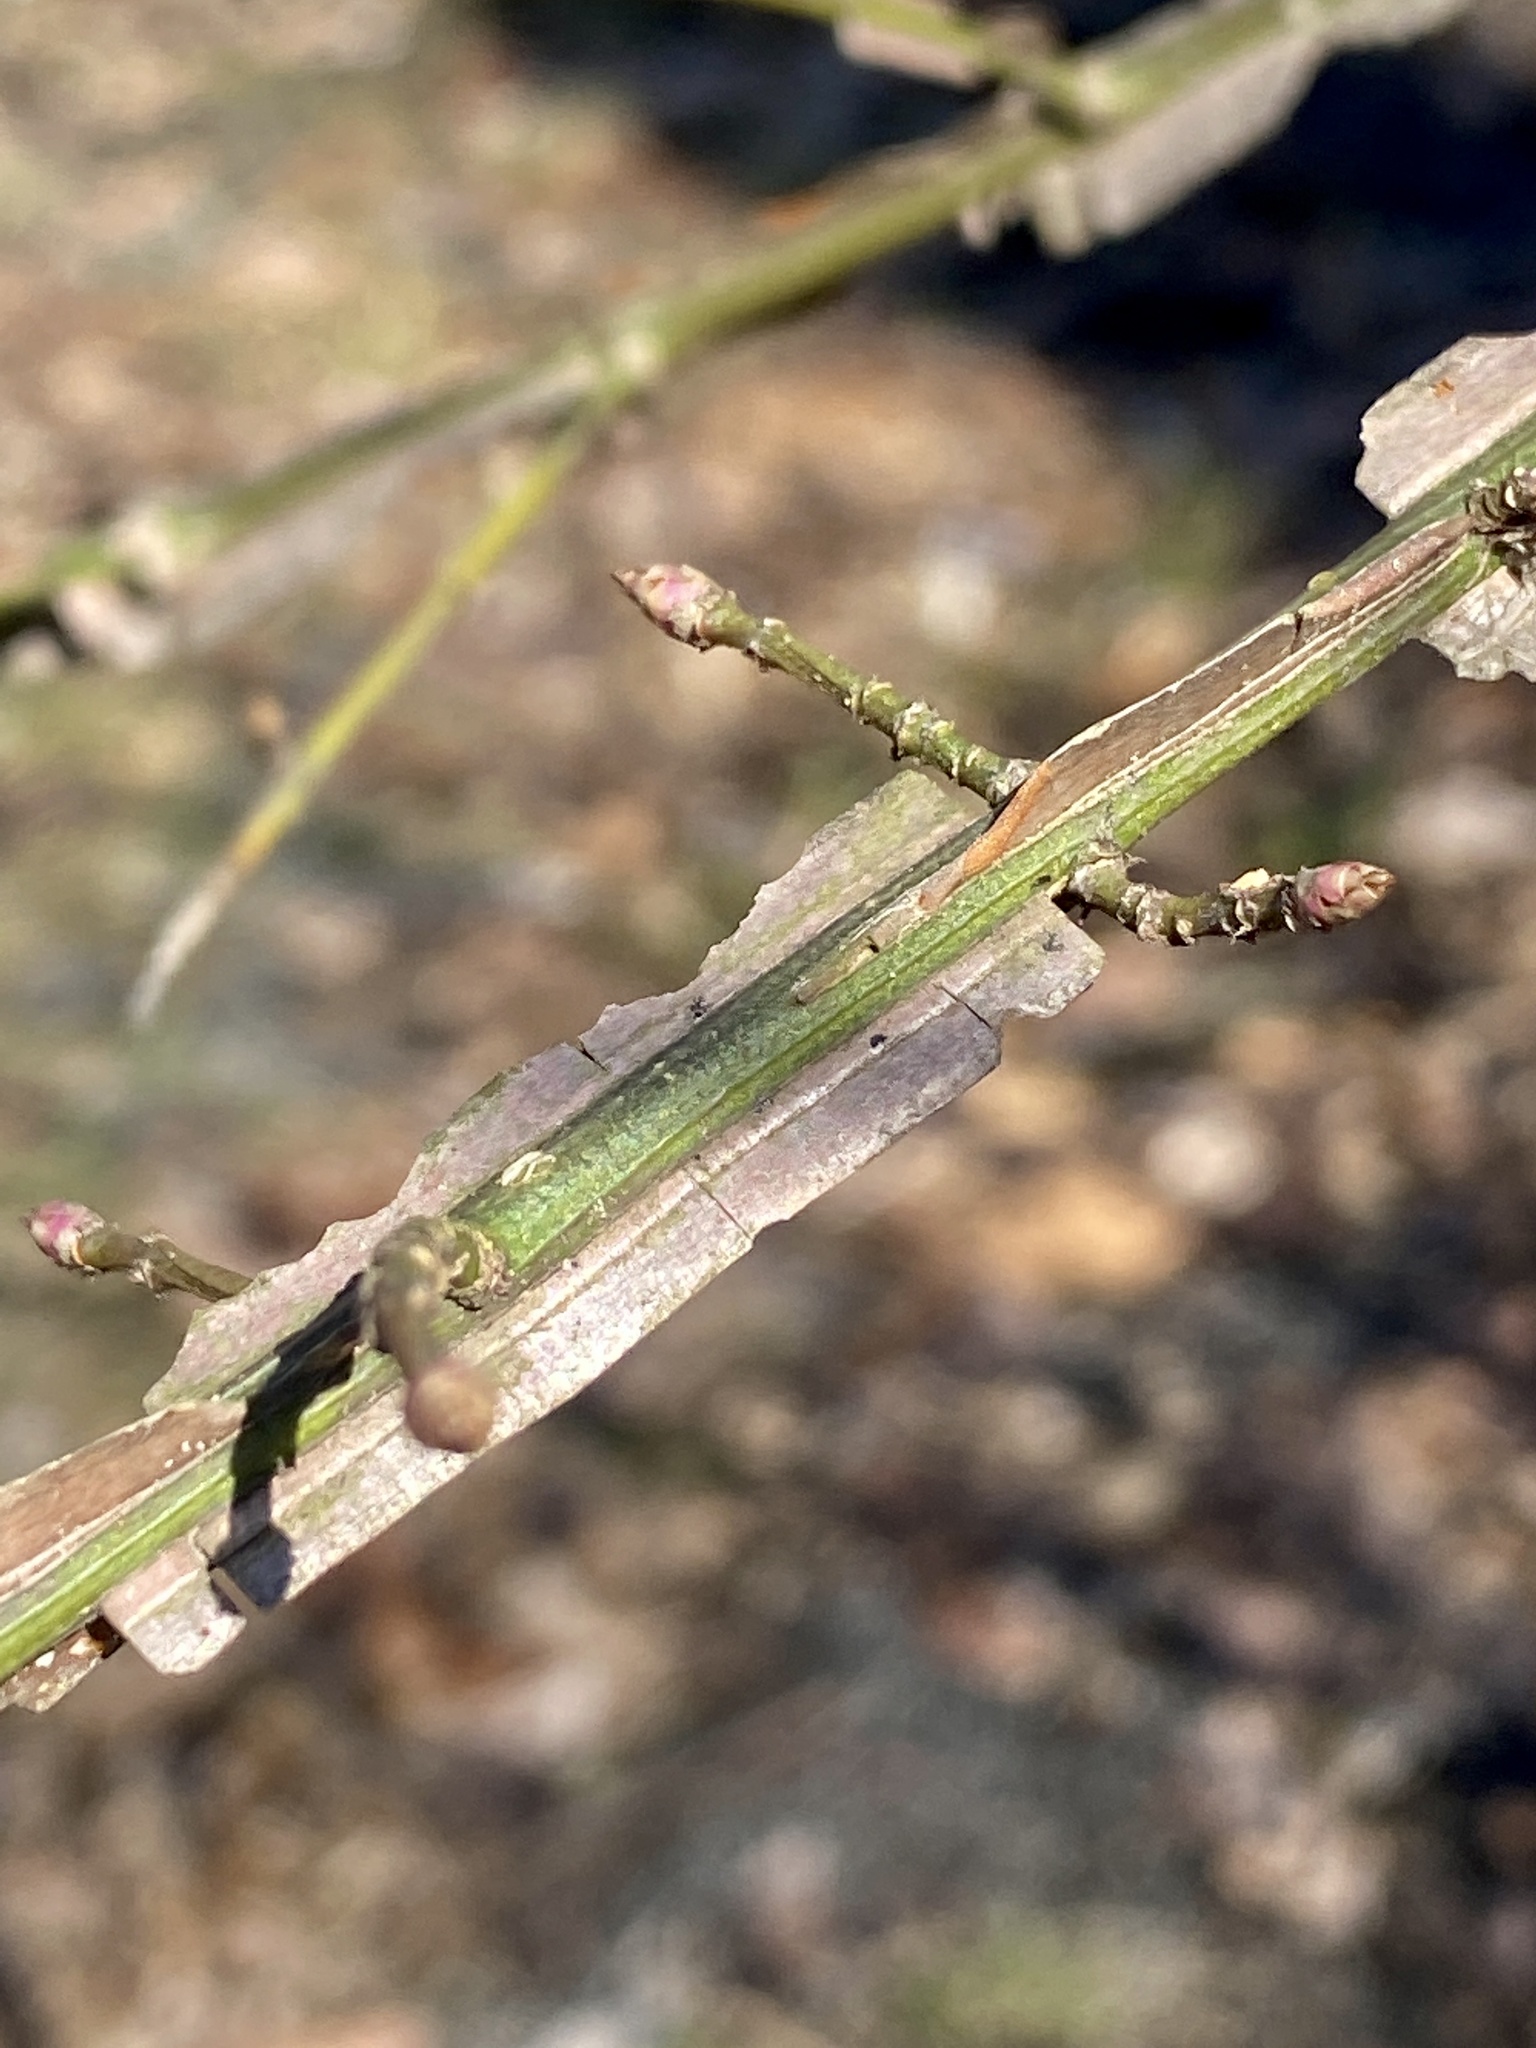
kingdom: Plantae
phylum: Tracheophyta
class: Magnoliopsida
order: Celastrales
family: Celastraceae
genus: Euonymus
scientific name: Euonymus alatus
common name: Winged euonymus
